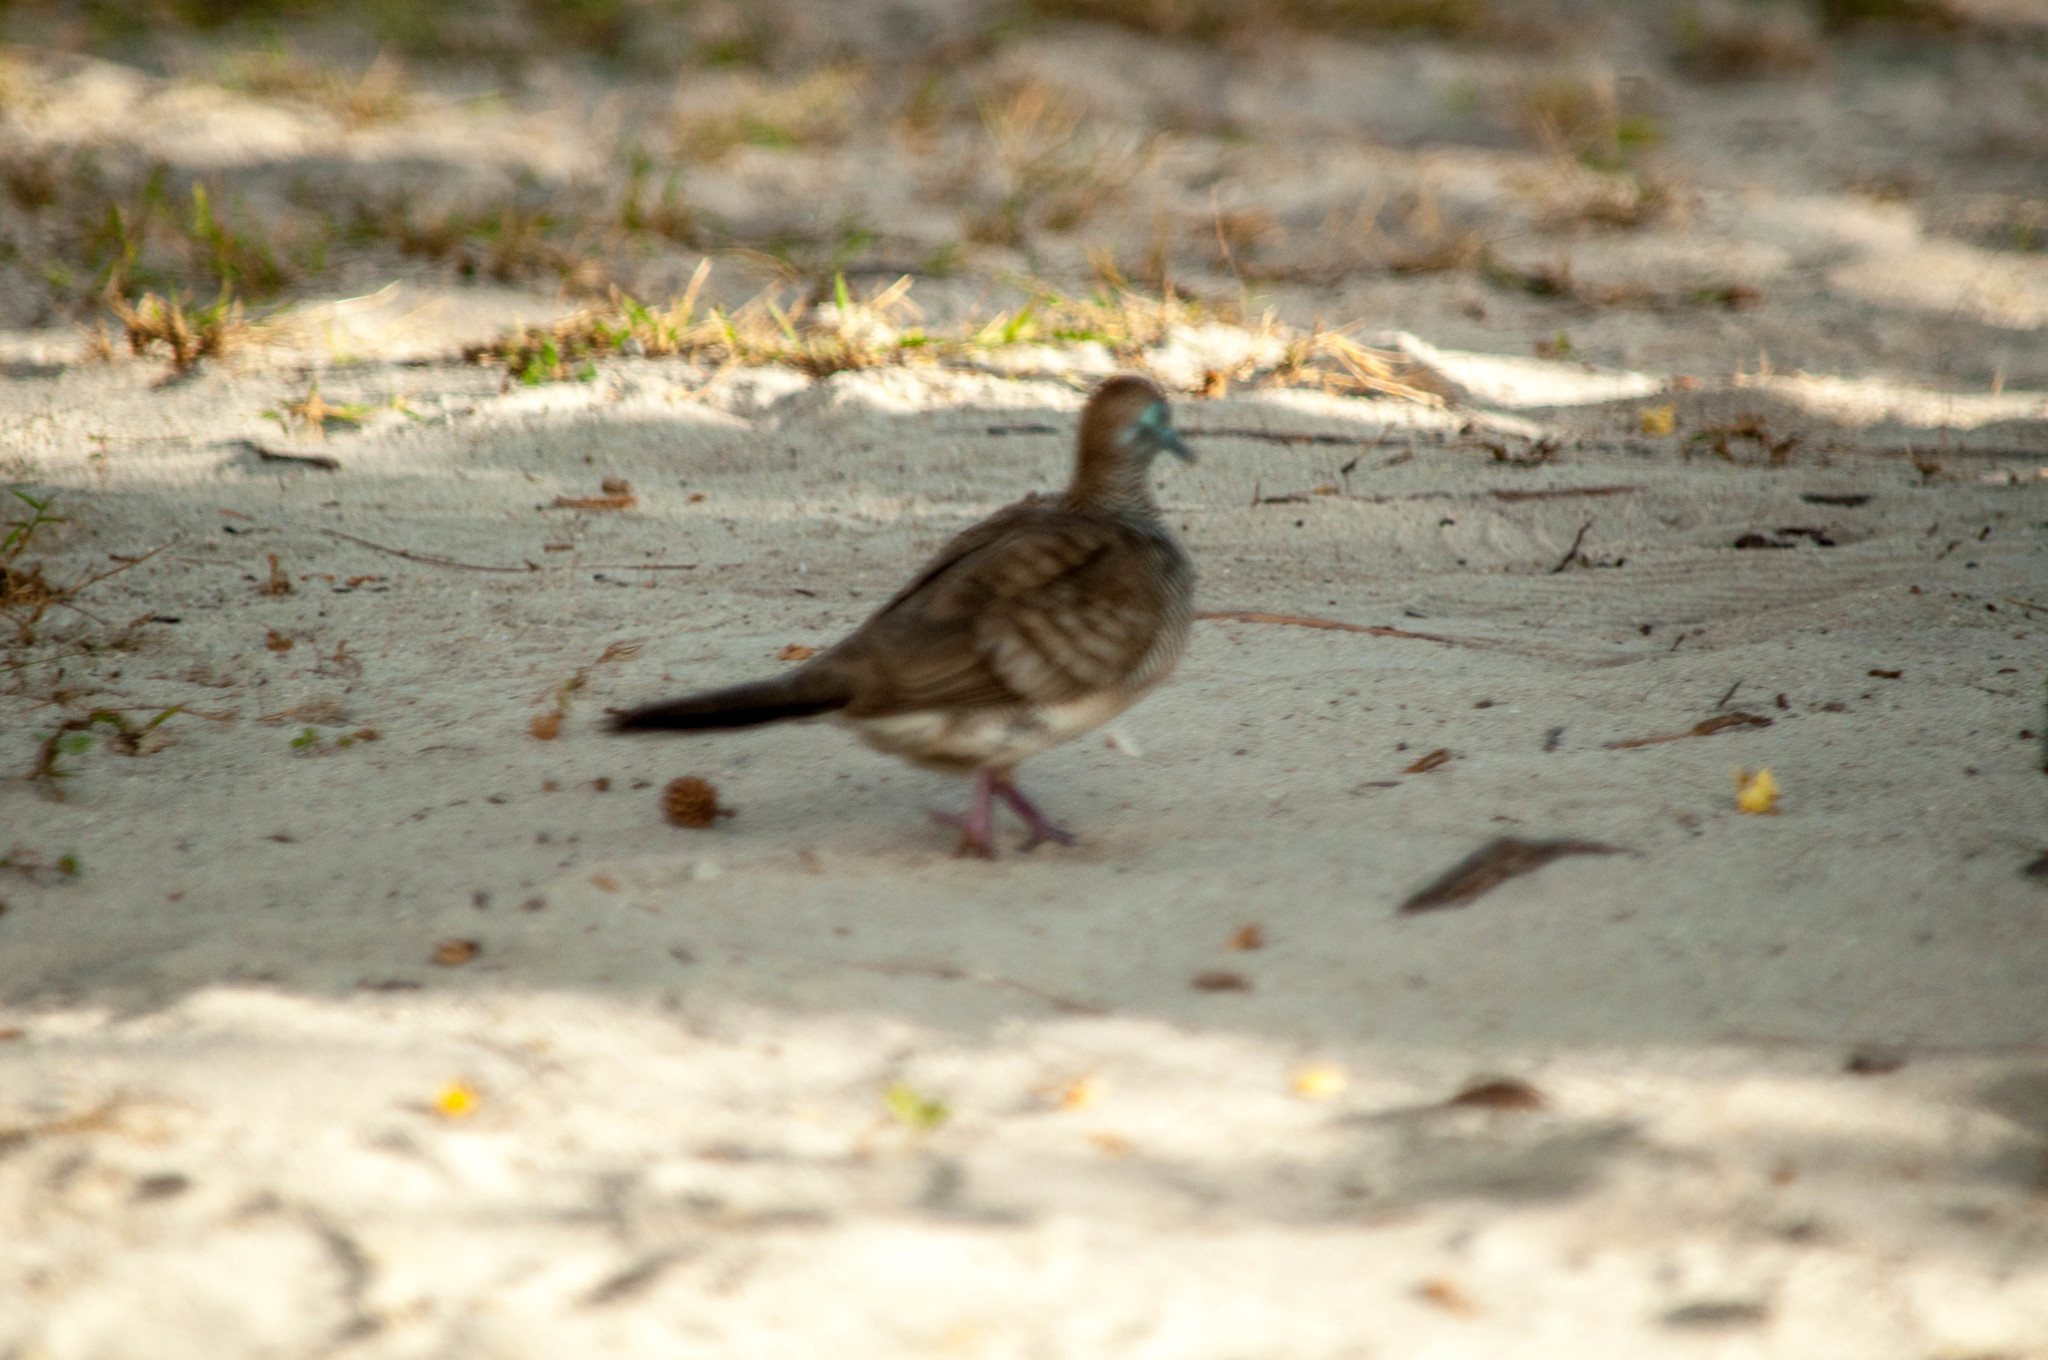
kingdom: Animalia
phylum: Chordata
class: Aves
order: Columbiformes
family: Columbidae
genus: Geopelia
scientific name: Geopelia striata
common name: Zebra dove
